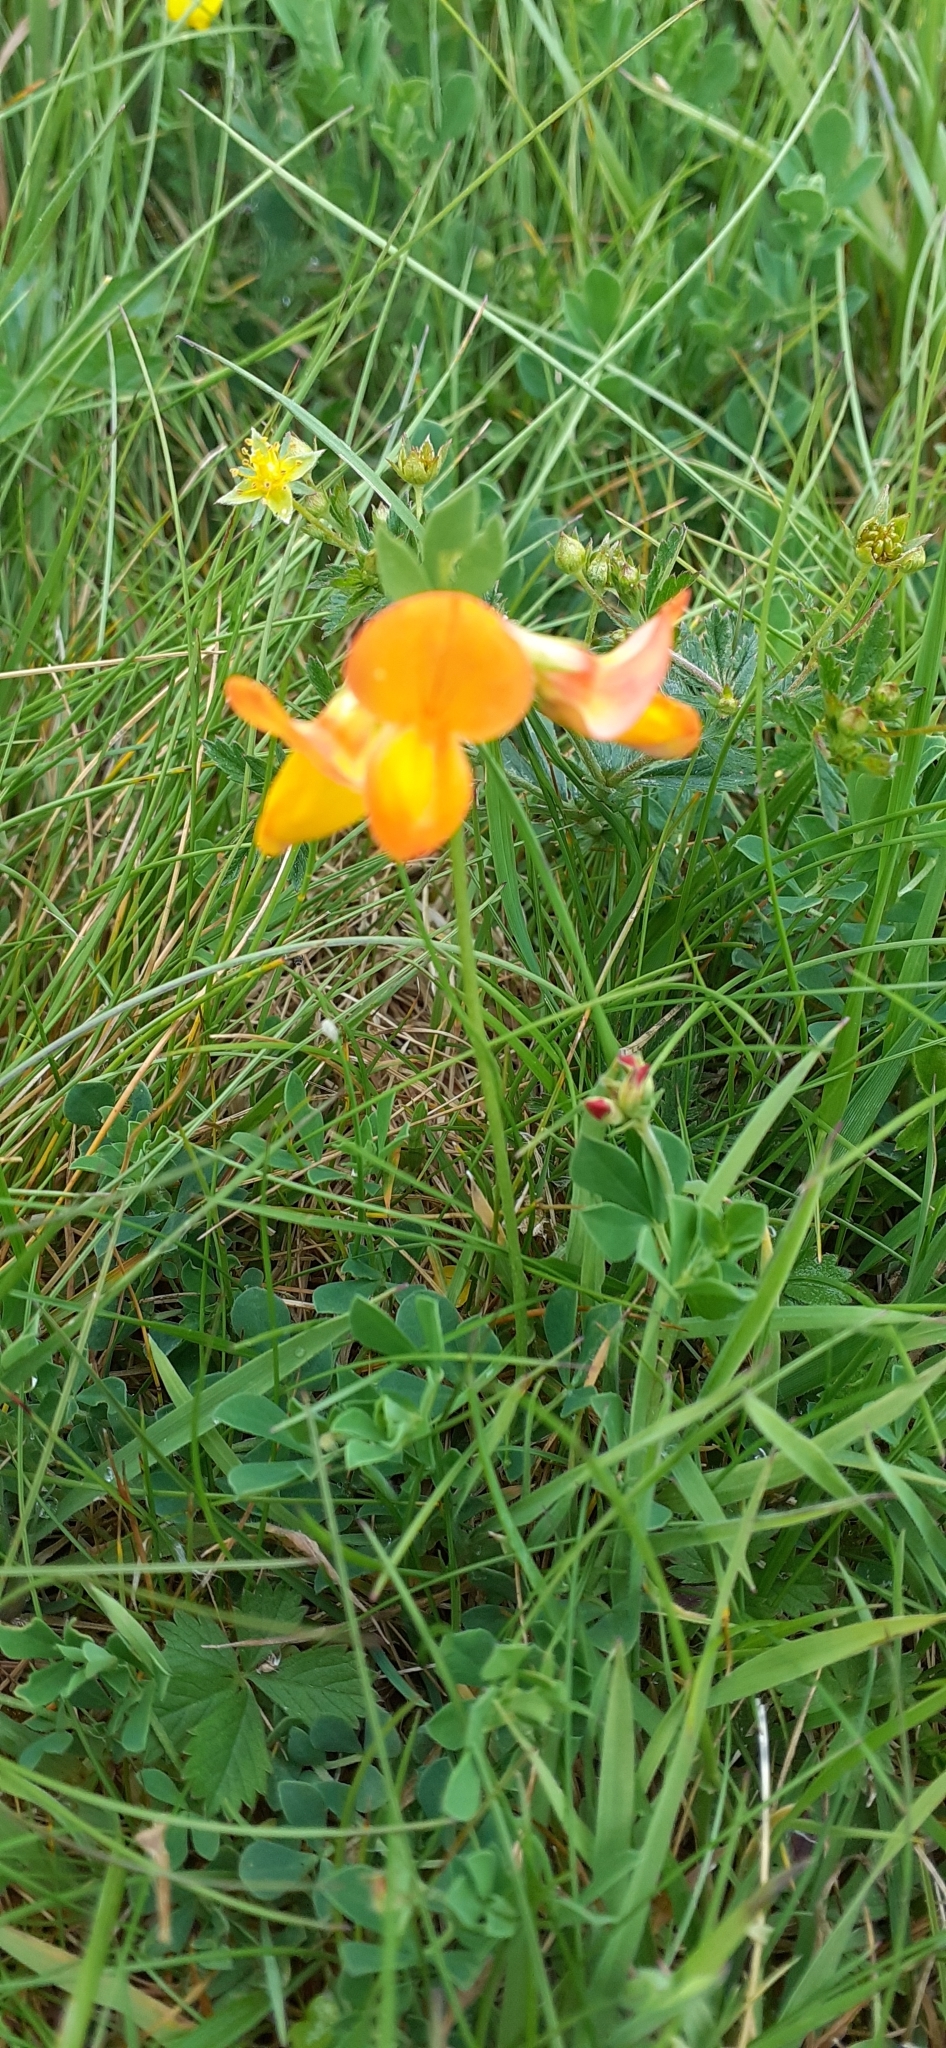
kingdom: Plantae
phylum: Tracheophyta
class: Magnoliopsida
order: Fabales
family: Fabaceae
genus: Lotus
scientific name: Lotus corniculatus
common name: Common bird's-foot-trefoil
